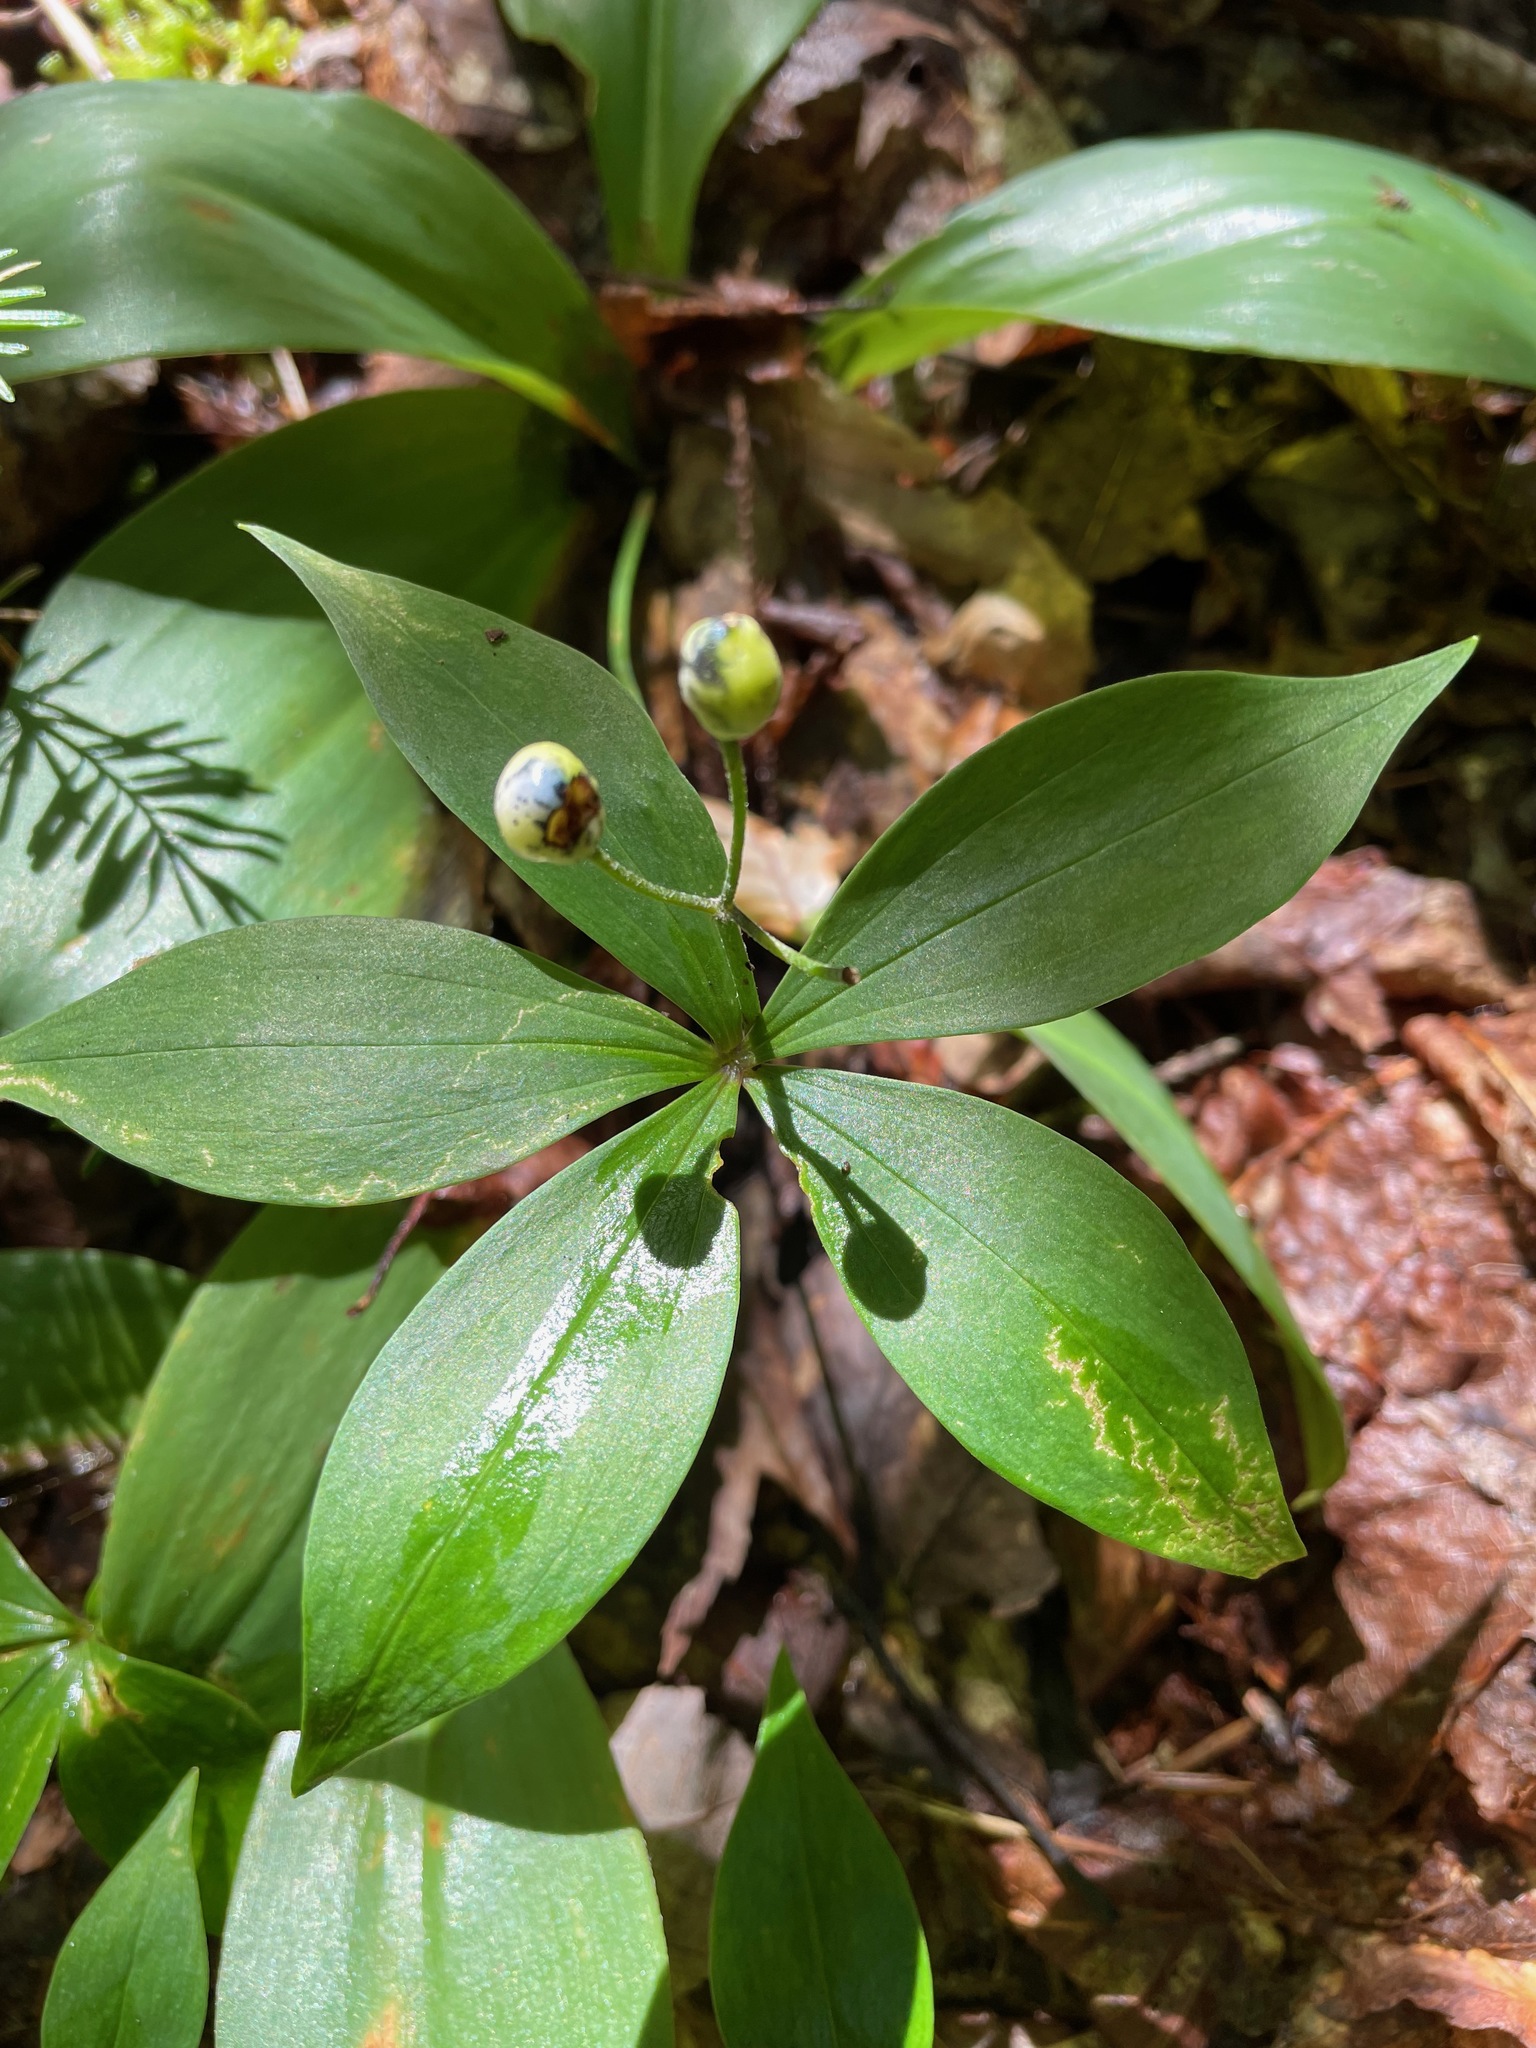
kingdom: Plantae
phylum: Tracheophyta
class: Liliopsida
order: Liliales
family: Liliaceae
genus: Clintonia
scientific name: Clintonia borealis
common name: Yellow clintonia
